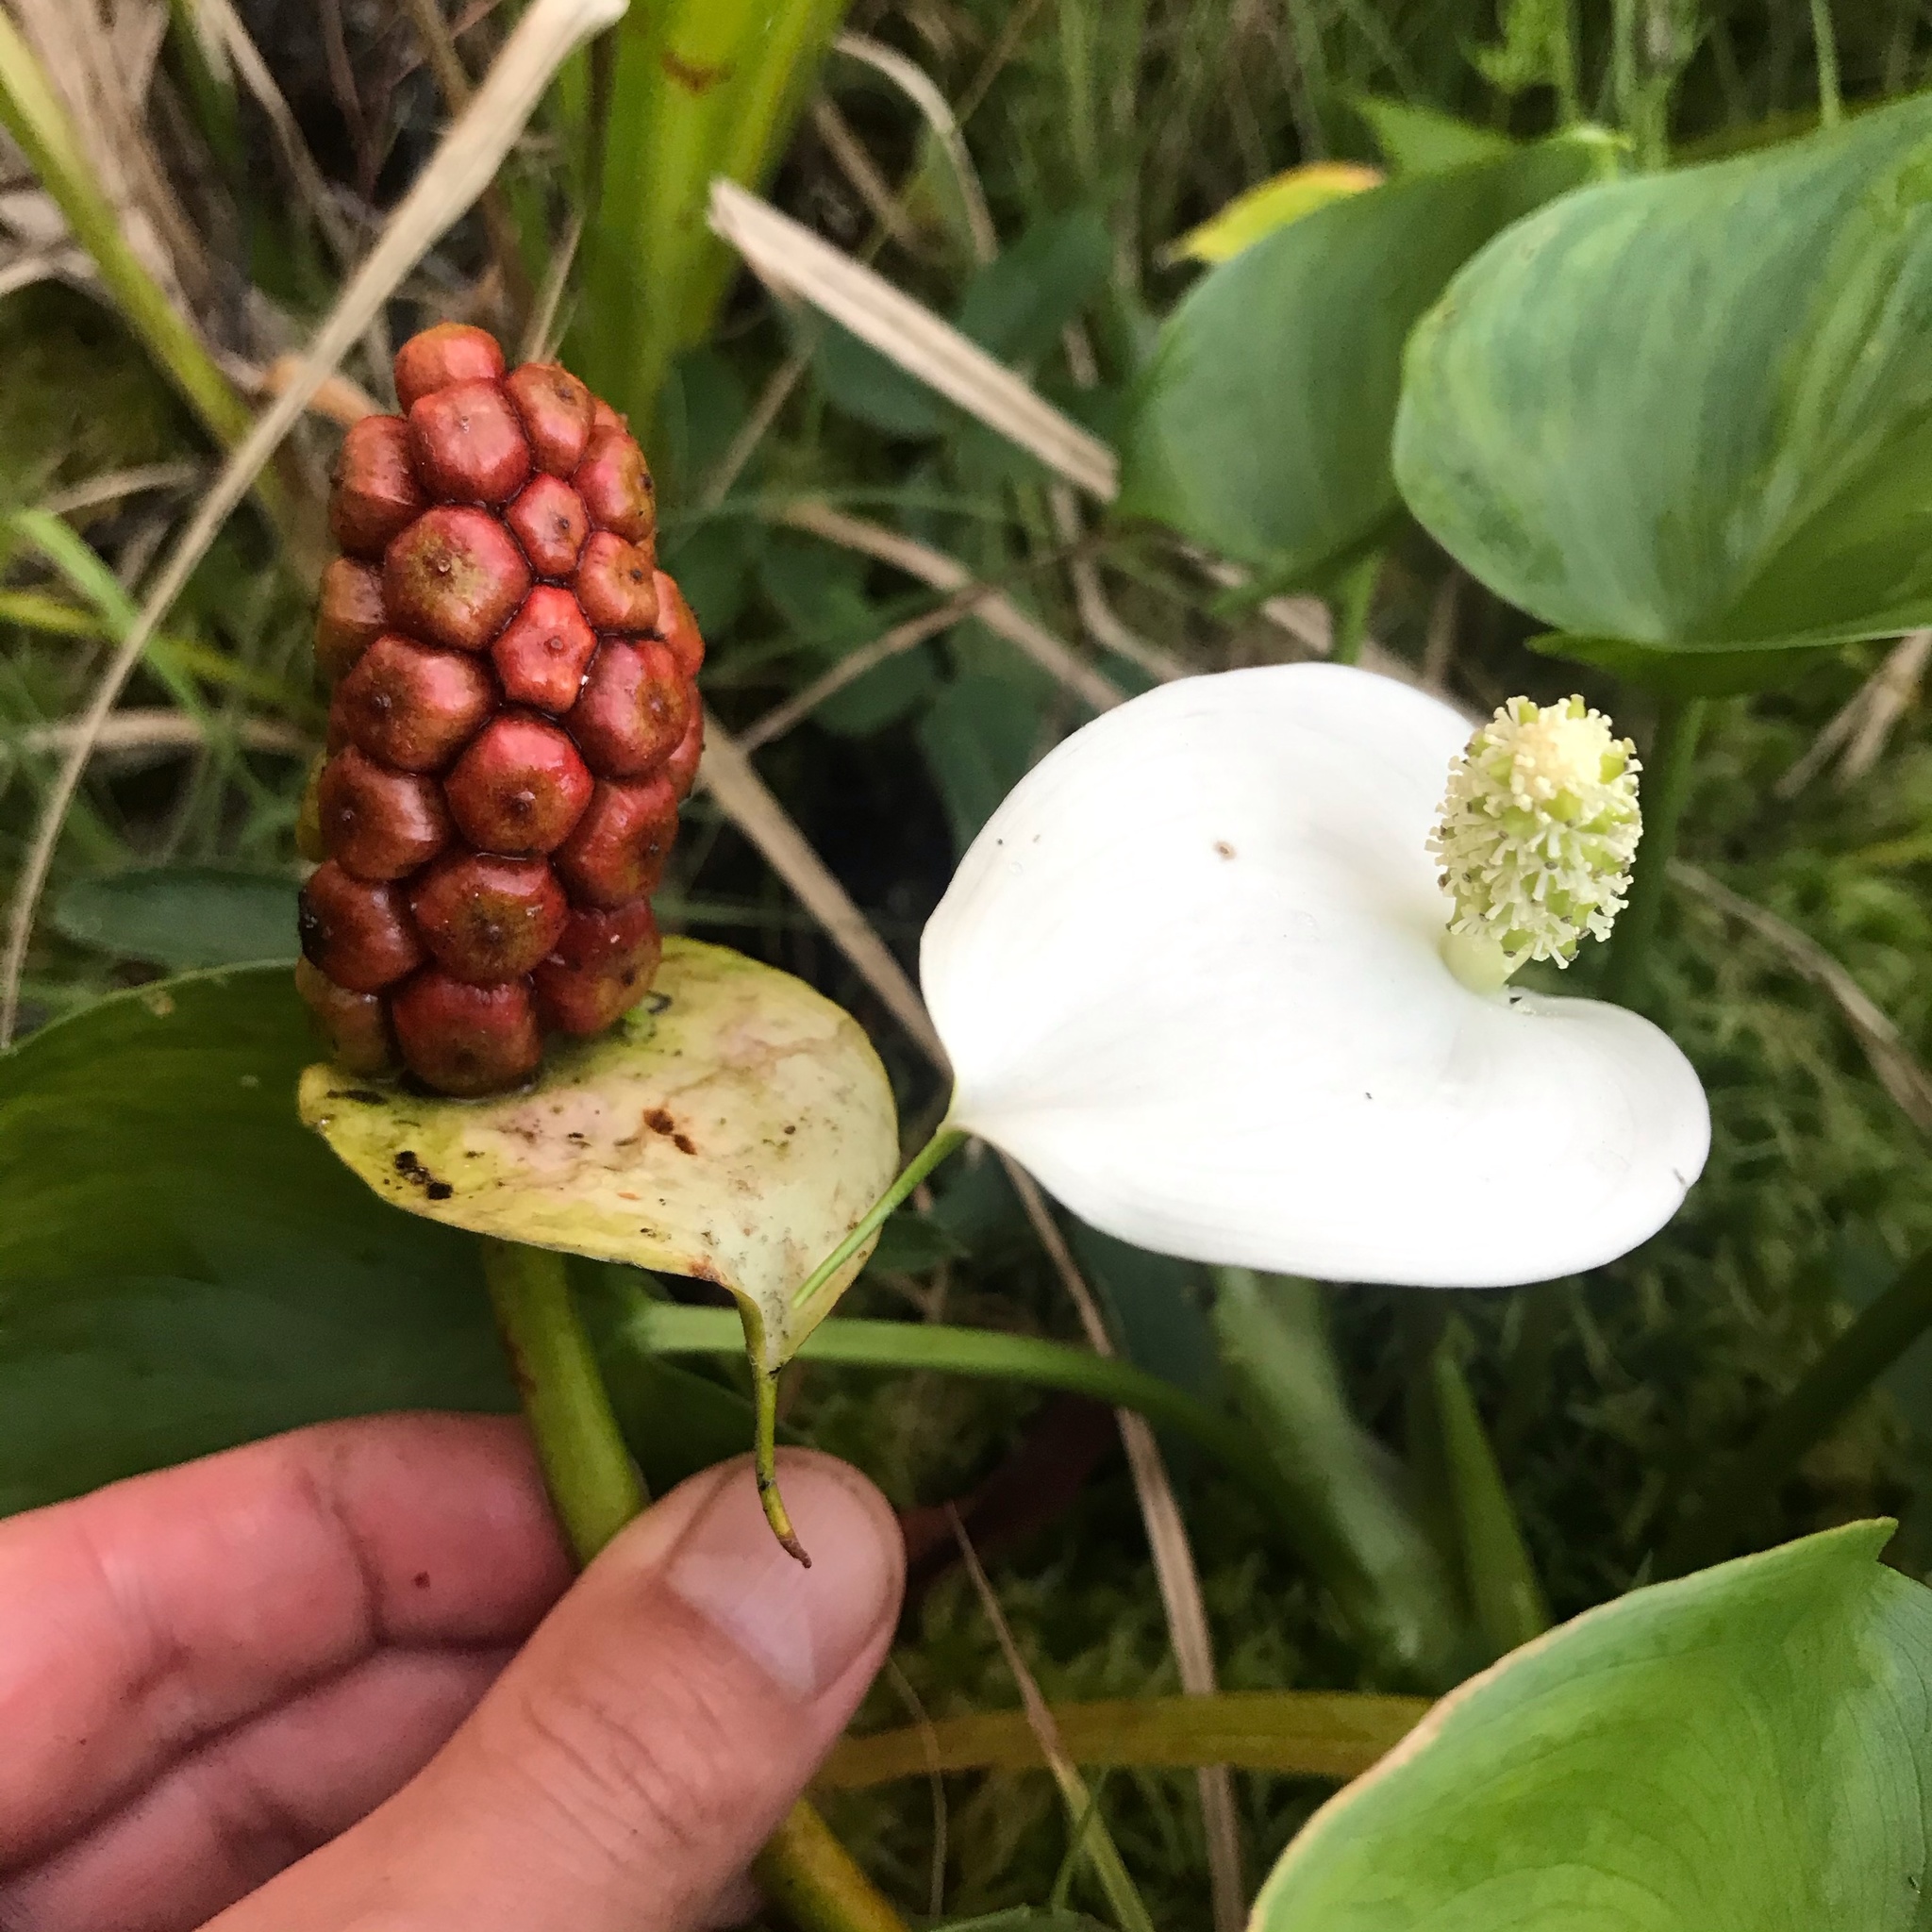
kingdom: Plantae
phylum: Tracheophyta
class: Liliopsida
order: Alismatales
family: Araceae
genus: Calla
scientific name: Calla palustris
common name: Bog arum
